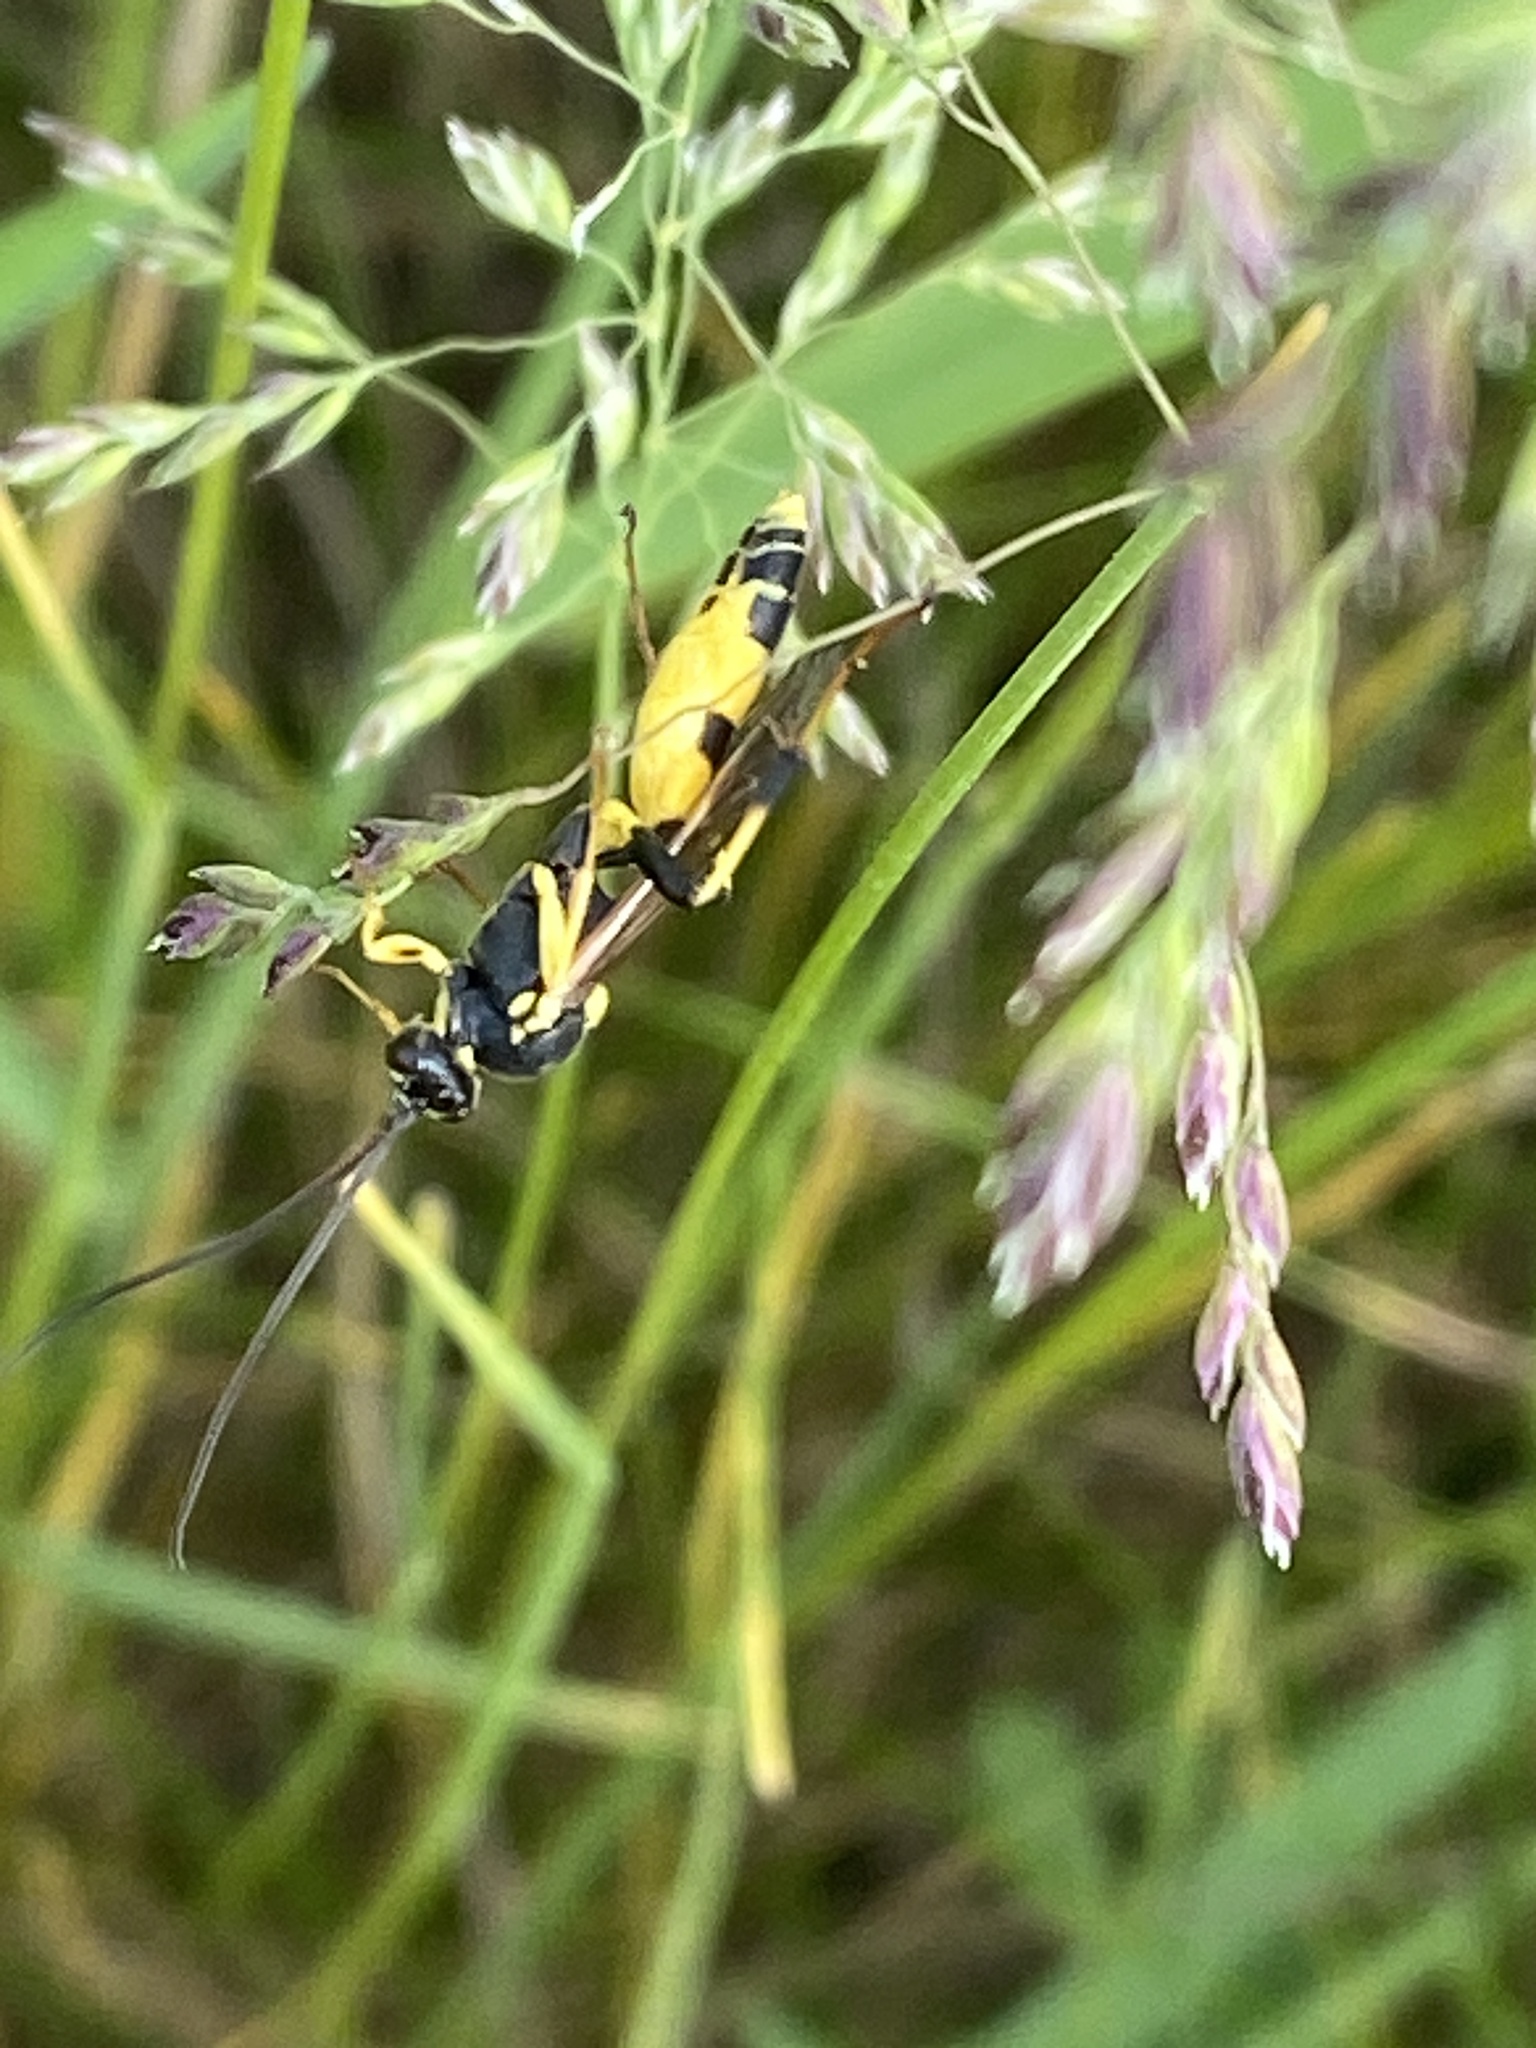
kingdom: Animalia
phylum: Arthropoda
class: Insecta
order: Hymenoptera
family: Ichneumonidae
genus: Amblyteles
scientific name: Amblyteles armatorius
